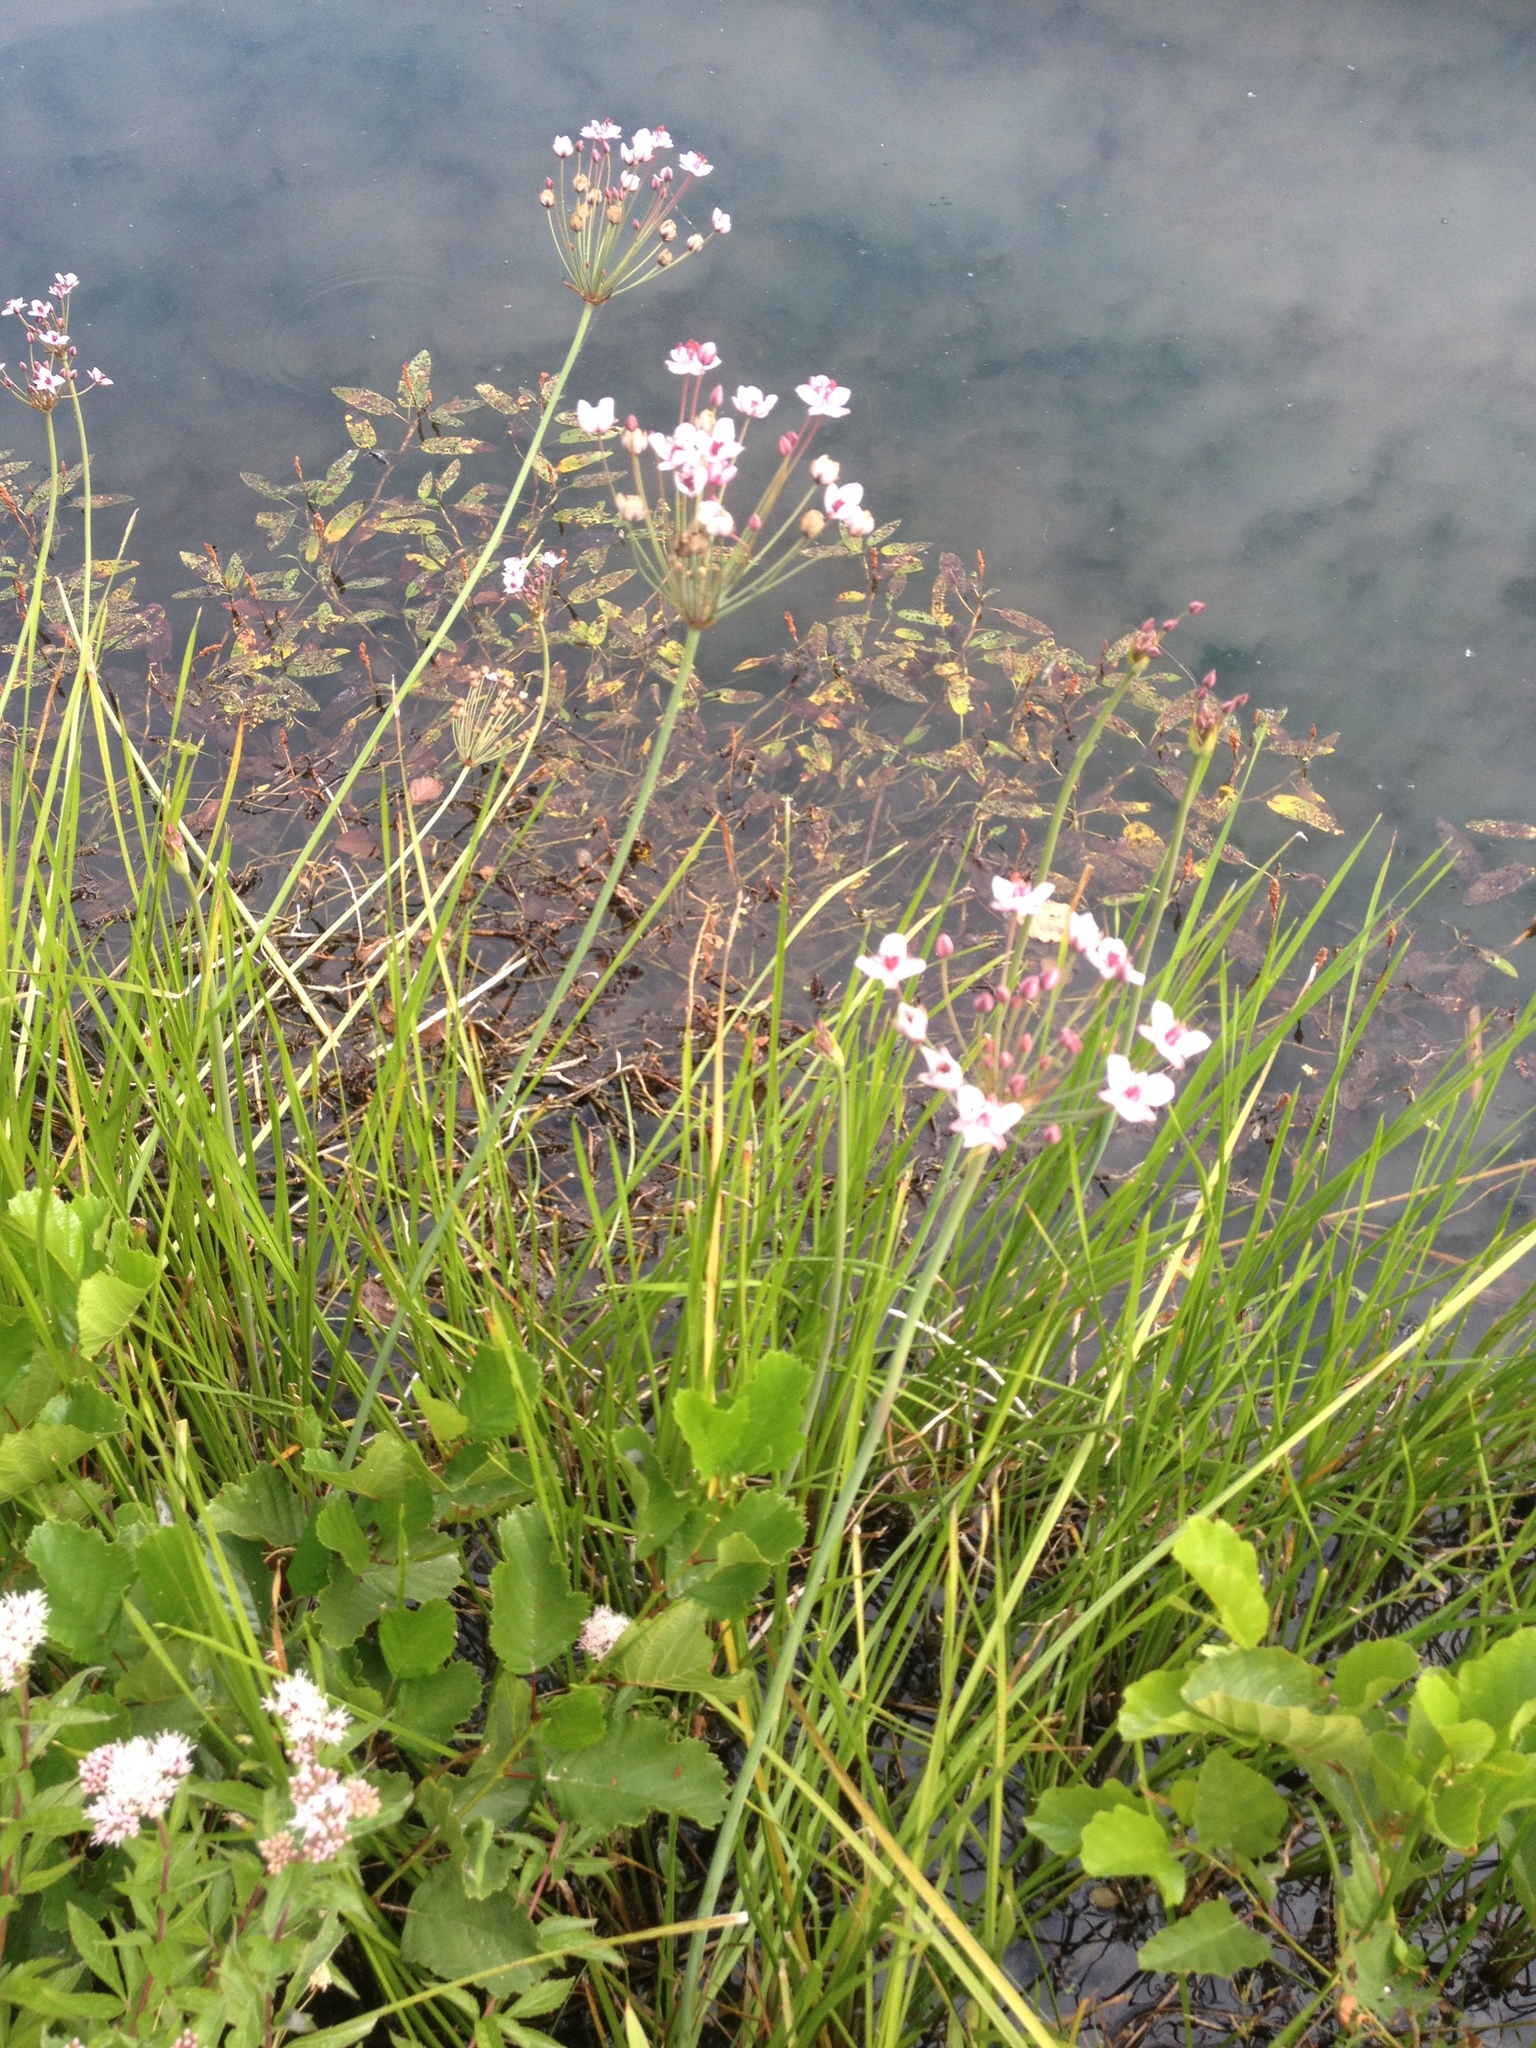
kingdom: Plantae
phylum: Tracheophyta
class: Liliopsida
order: Alismatales
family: Butomaceae
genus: Butomus
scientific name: Butomus umbellatus
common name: Flowering-rush
